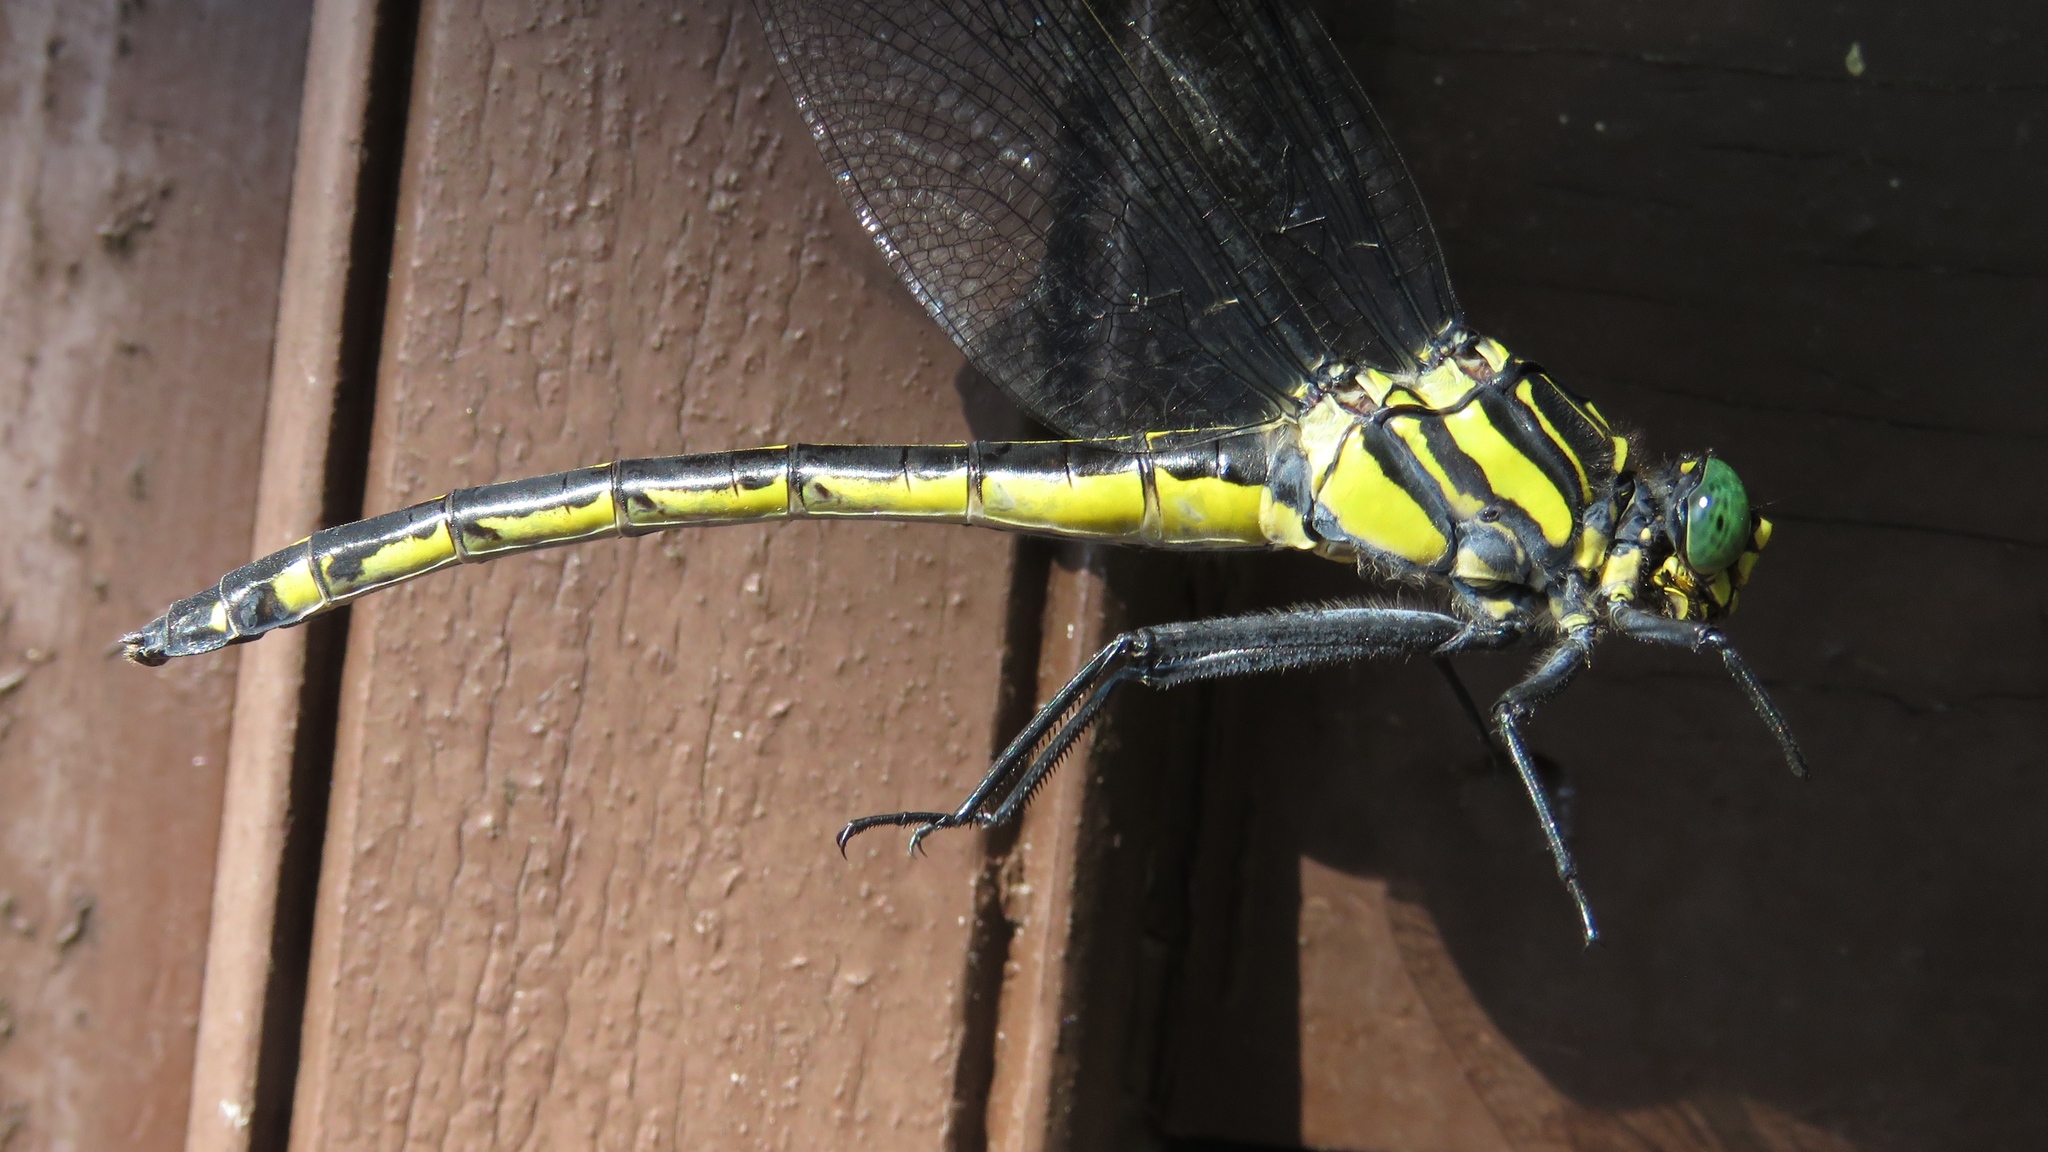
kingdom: Animalia
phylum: Arthropoda
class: Insecta
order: Odonata
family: Gomphidae
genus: Hagenius
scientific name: Hagenius brevistylus
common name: Dragonhunter
